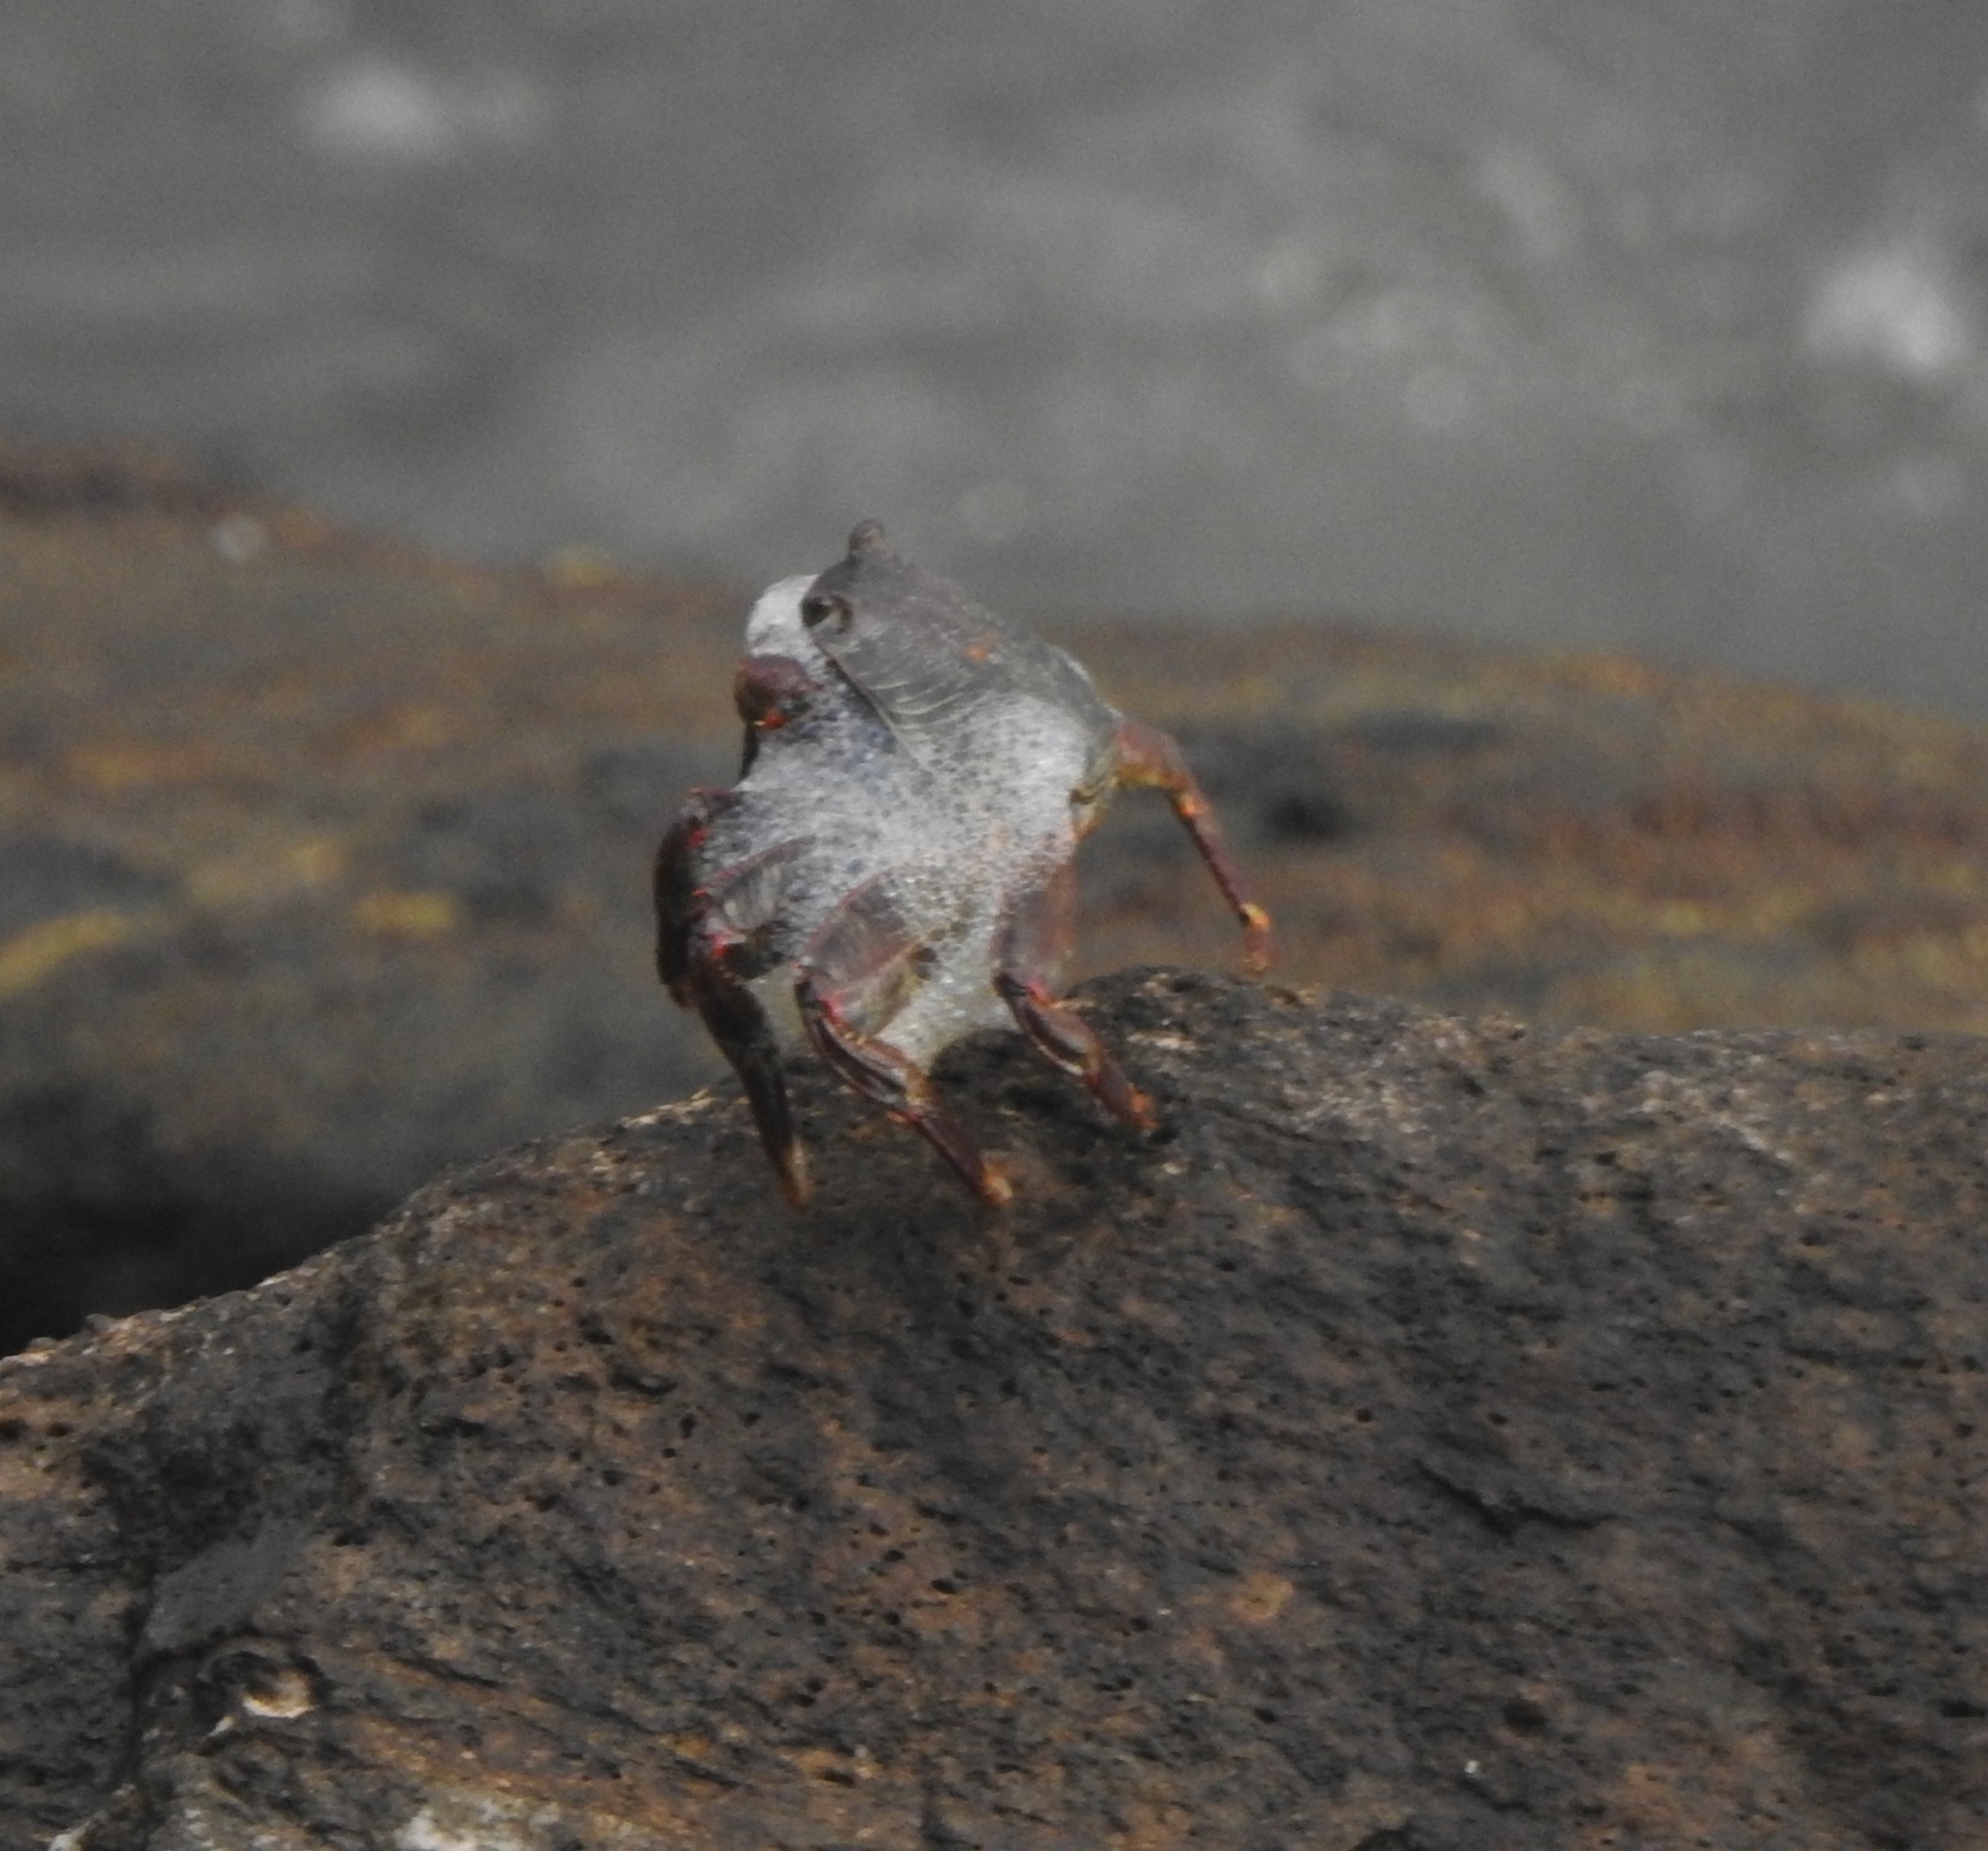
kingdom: Animalia
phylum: Arthropoda
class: Malacostraca
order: Decapoda
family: Grapsidae
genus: Grapsus
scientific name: Grapsus albolineatus
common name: Mottled lightfoot crab
